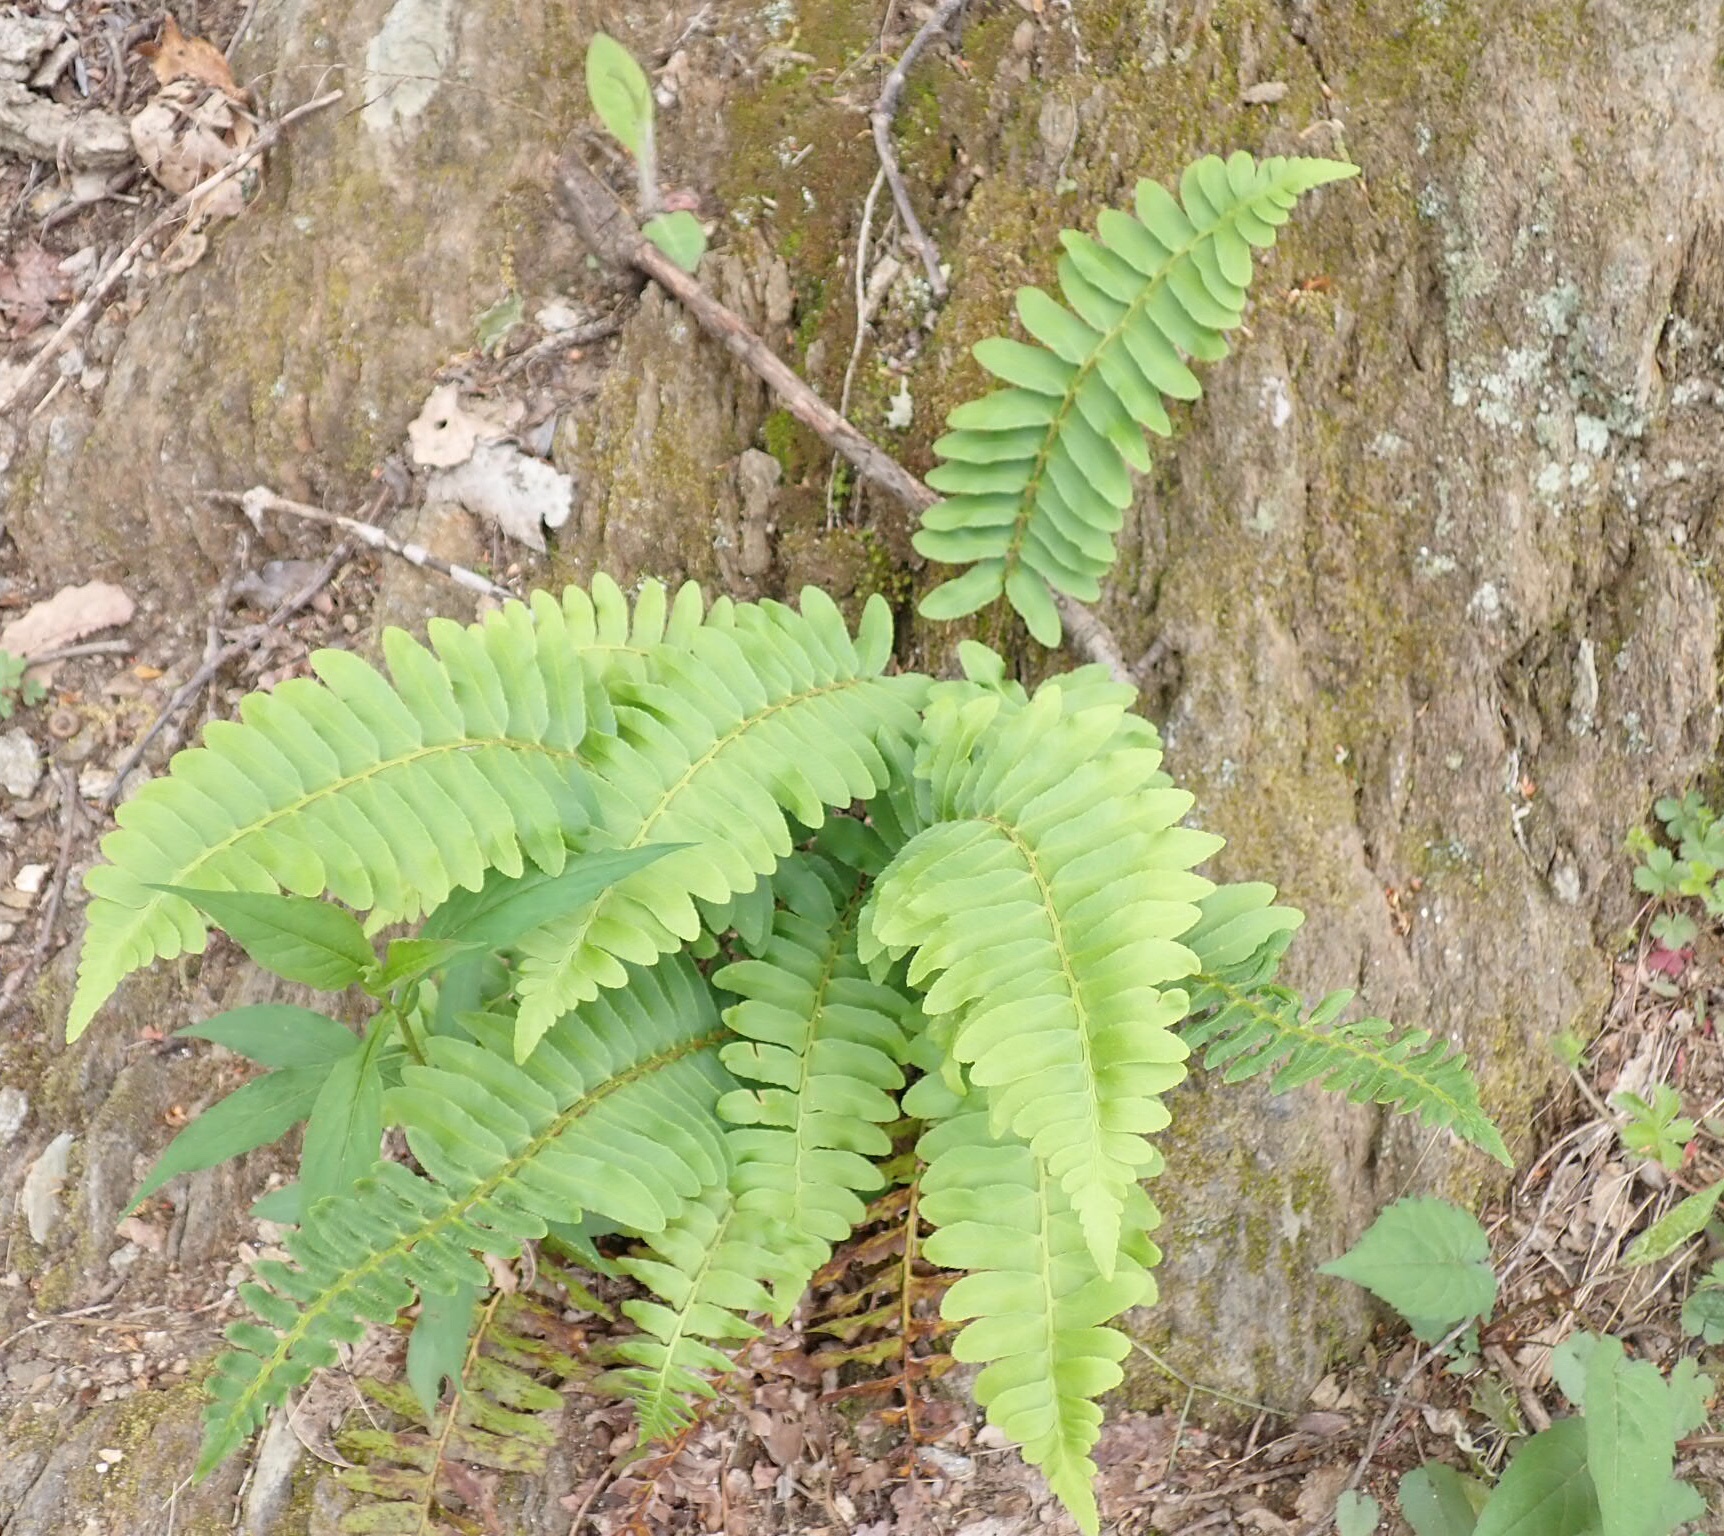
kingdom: Plantae
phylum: Tracheophyta
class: Polypodiopsida
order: Polypodiales
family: Dryopteridaceae
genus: Polystichum
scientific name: Polystichum acrostichoides
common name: Christmas fern
